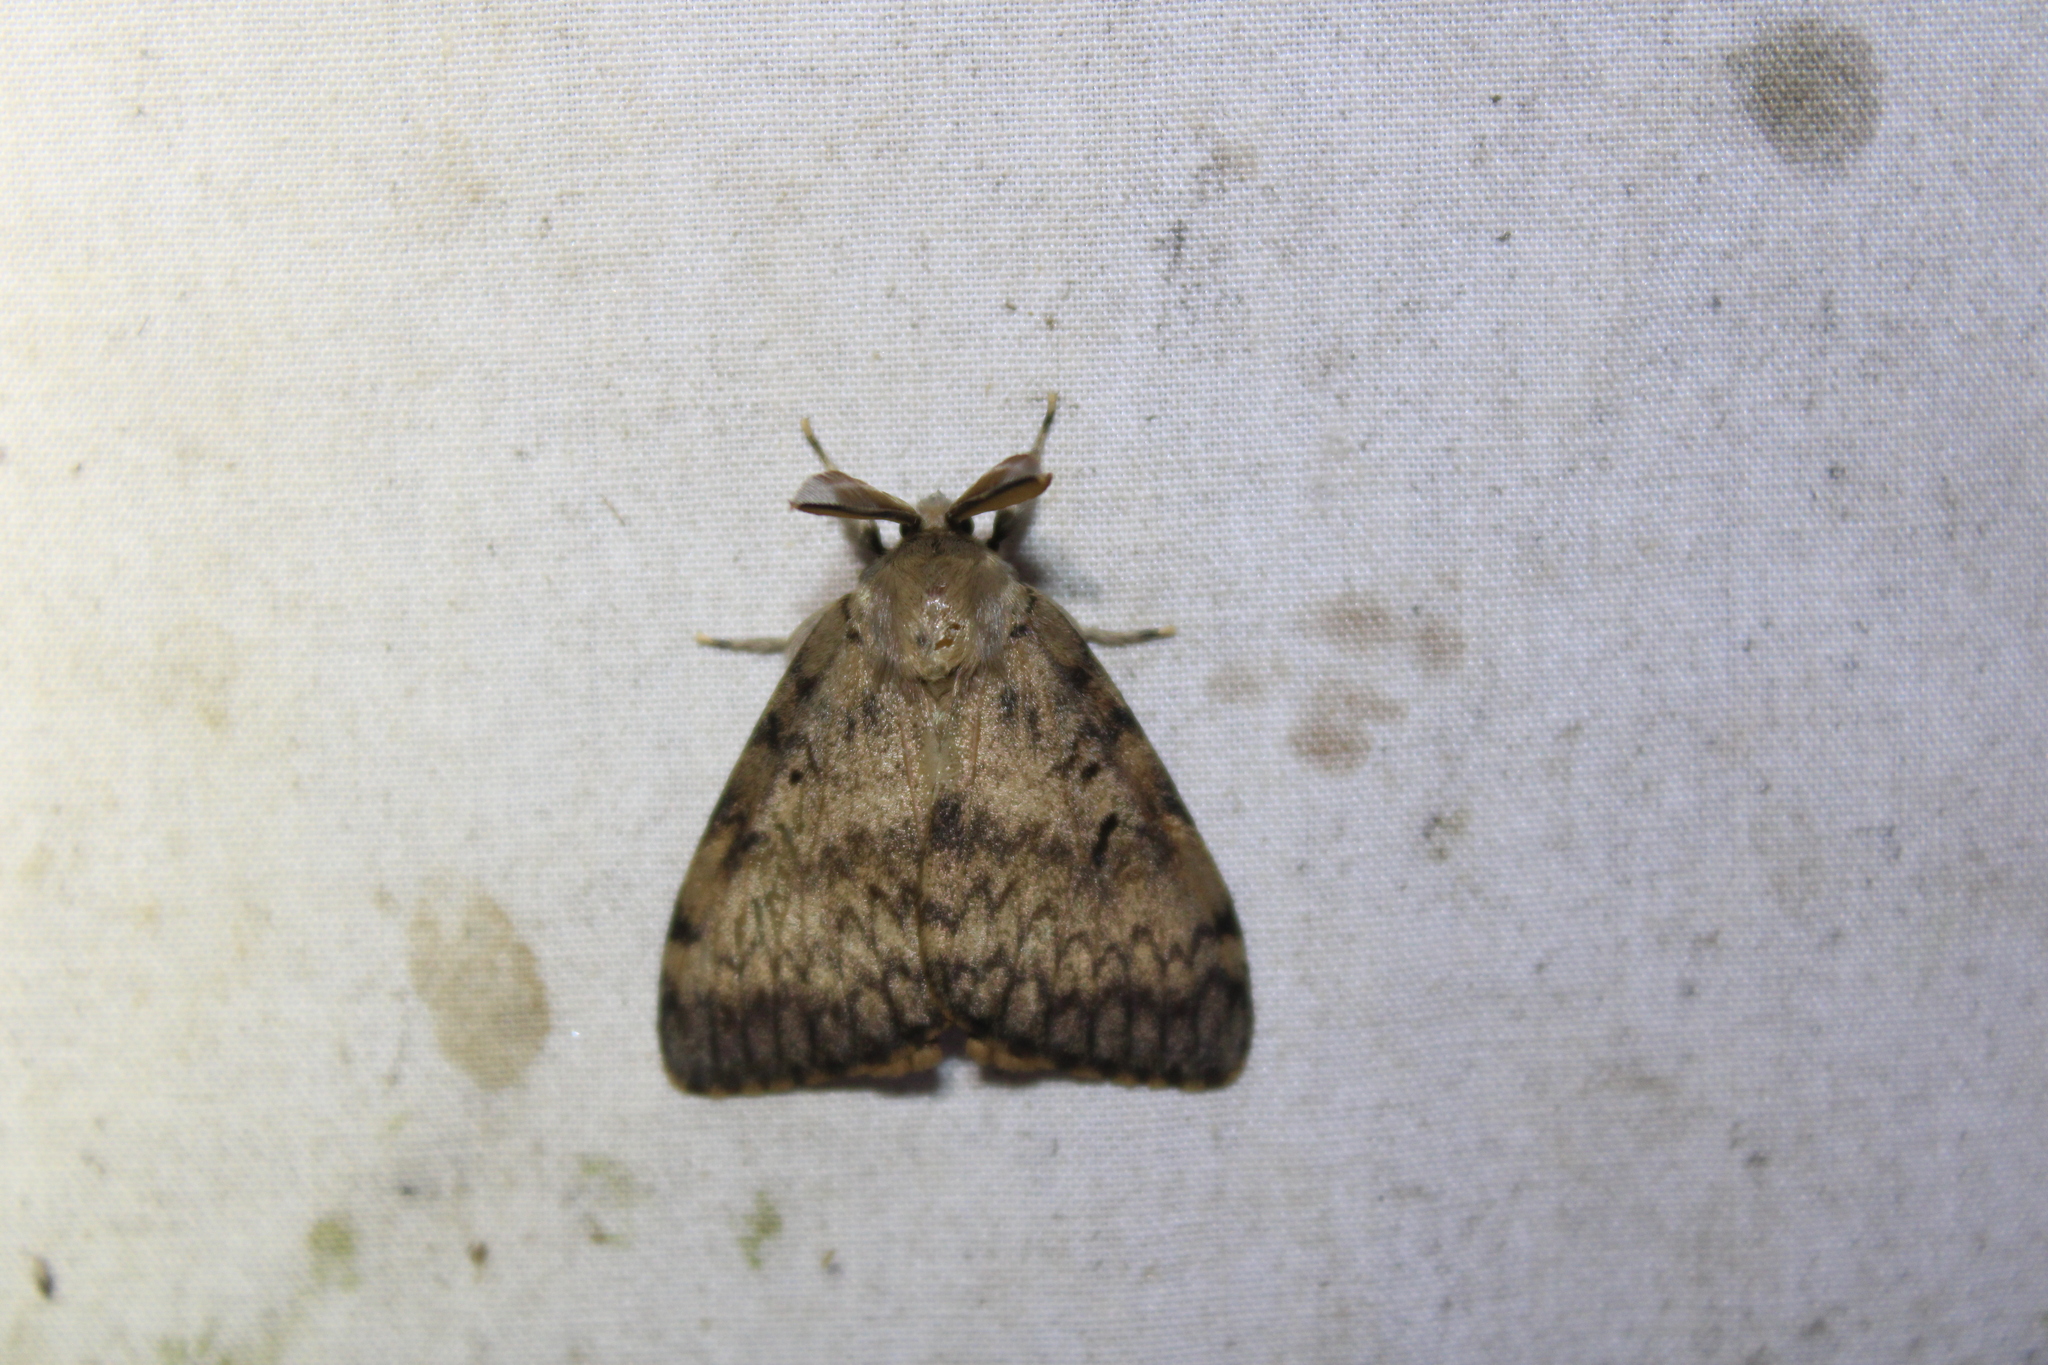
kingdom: Animalia
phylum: Arthropoda
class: Insecta
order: Lepidoptera
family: Erebidae
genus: Lymantria
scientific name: Lymantria dispar
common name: Gypsy moth
